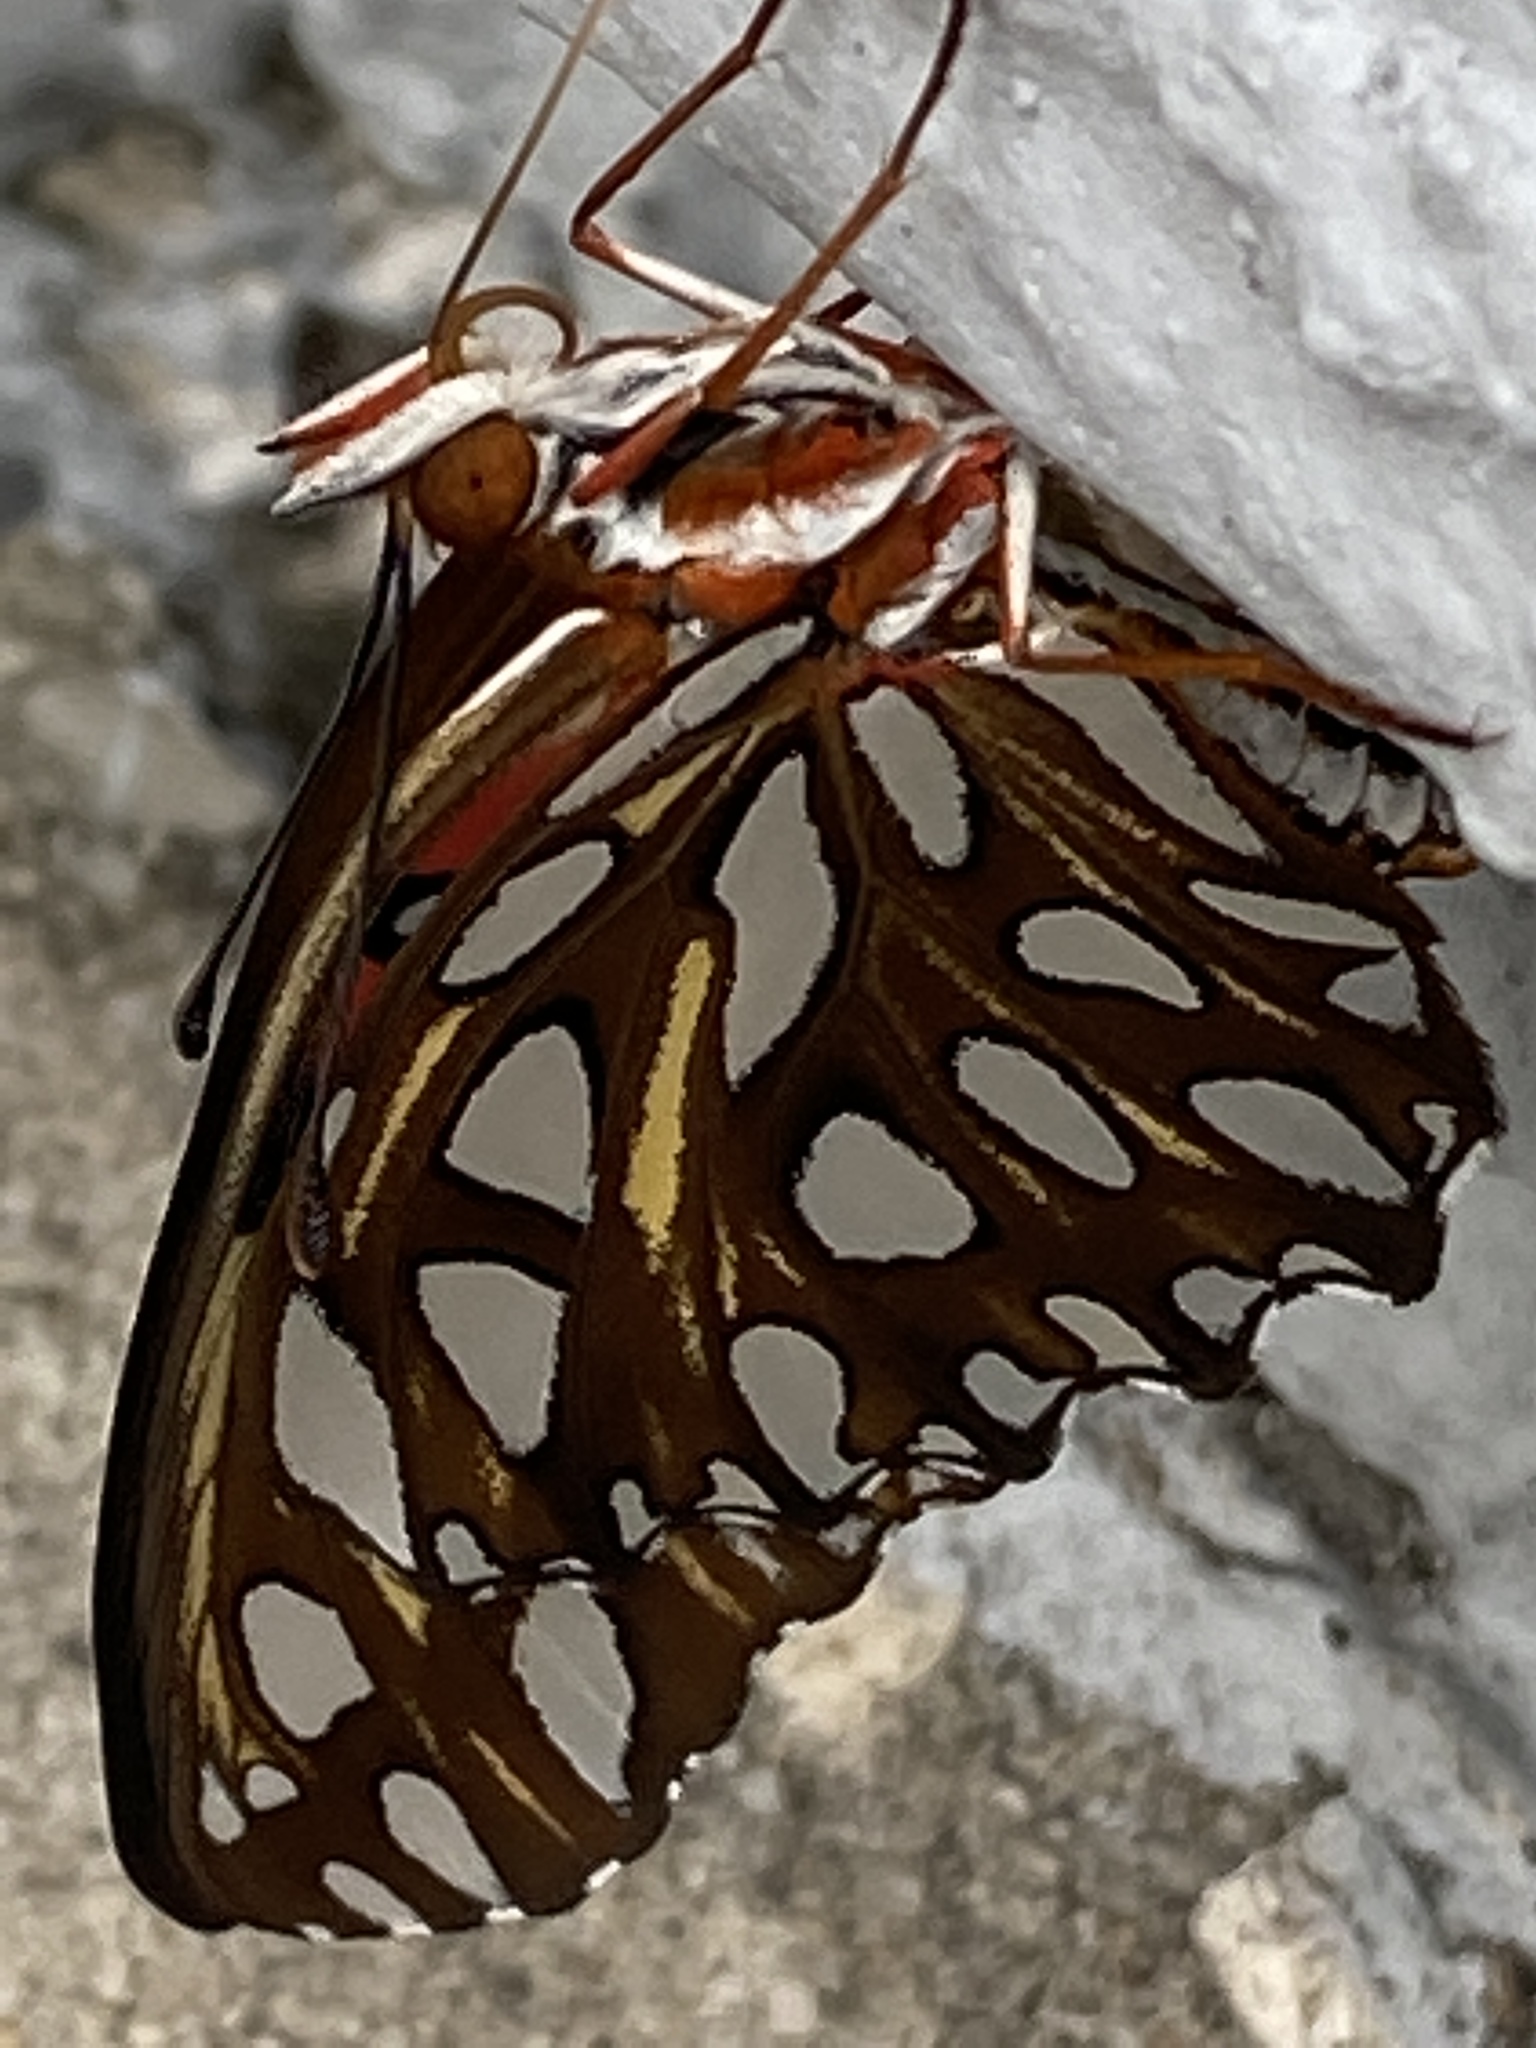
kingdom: Animalia
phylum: Arthropoda
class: Insecta
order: Lepidoptera
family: Nymphalidae
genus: Dione
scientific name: Dione vanillae
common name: Gulf fritillary
